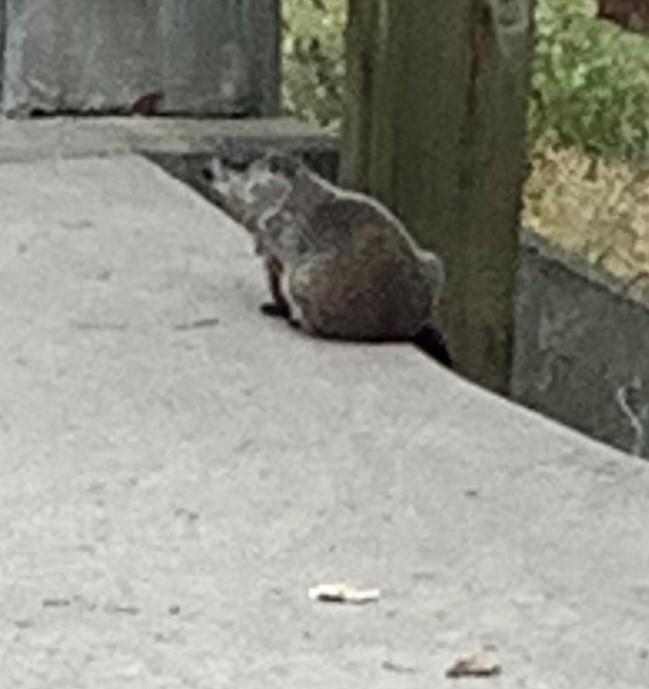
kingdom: Animalia
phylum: Chordata
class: Mammalia
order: Rodentia
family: Sciuridae
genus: Marmota
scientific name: Marmota monax
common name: Groundhog
